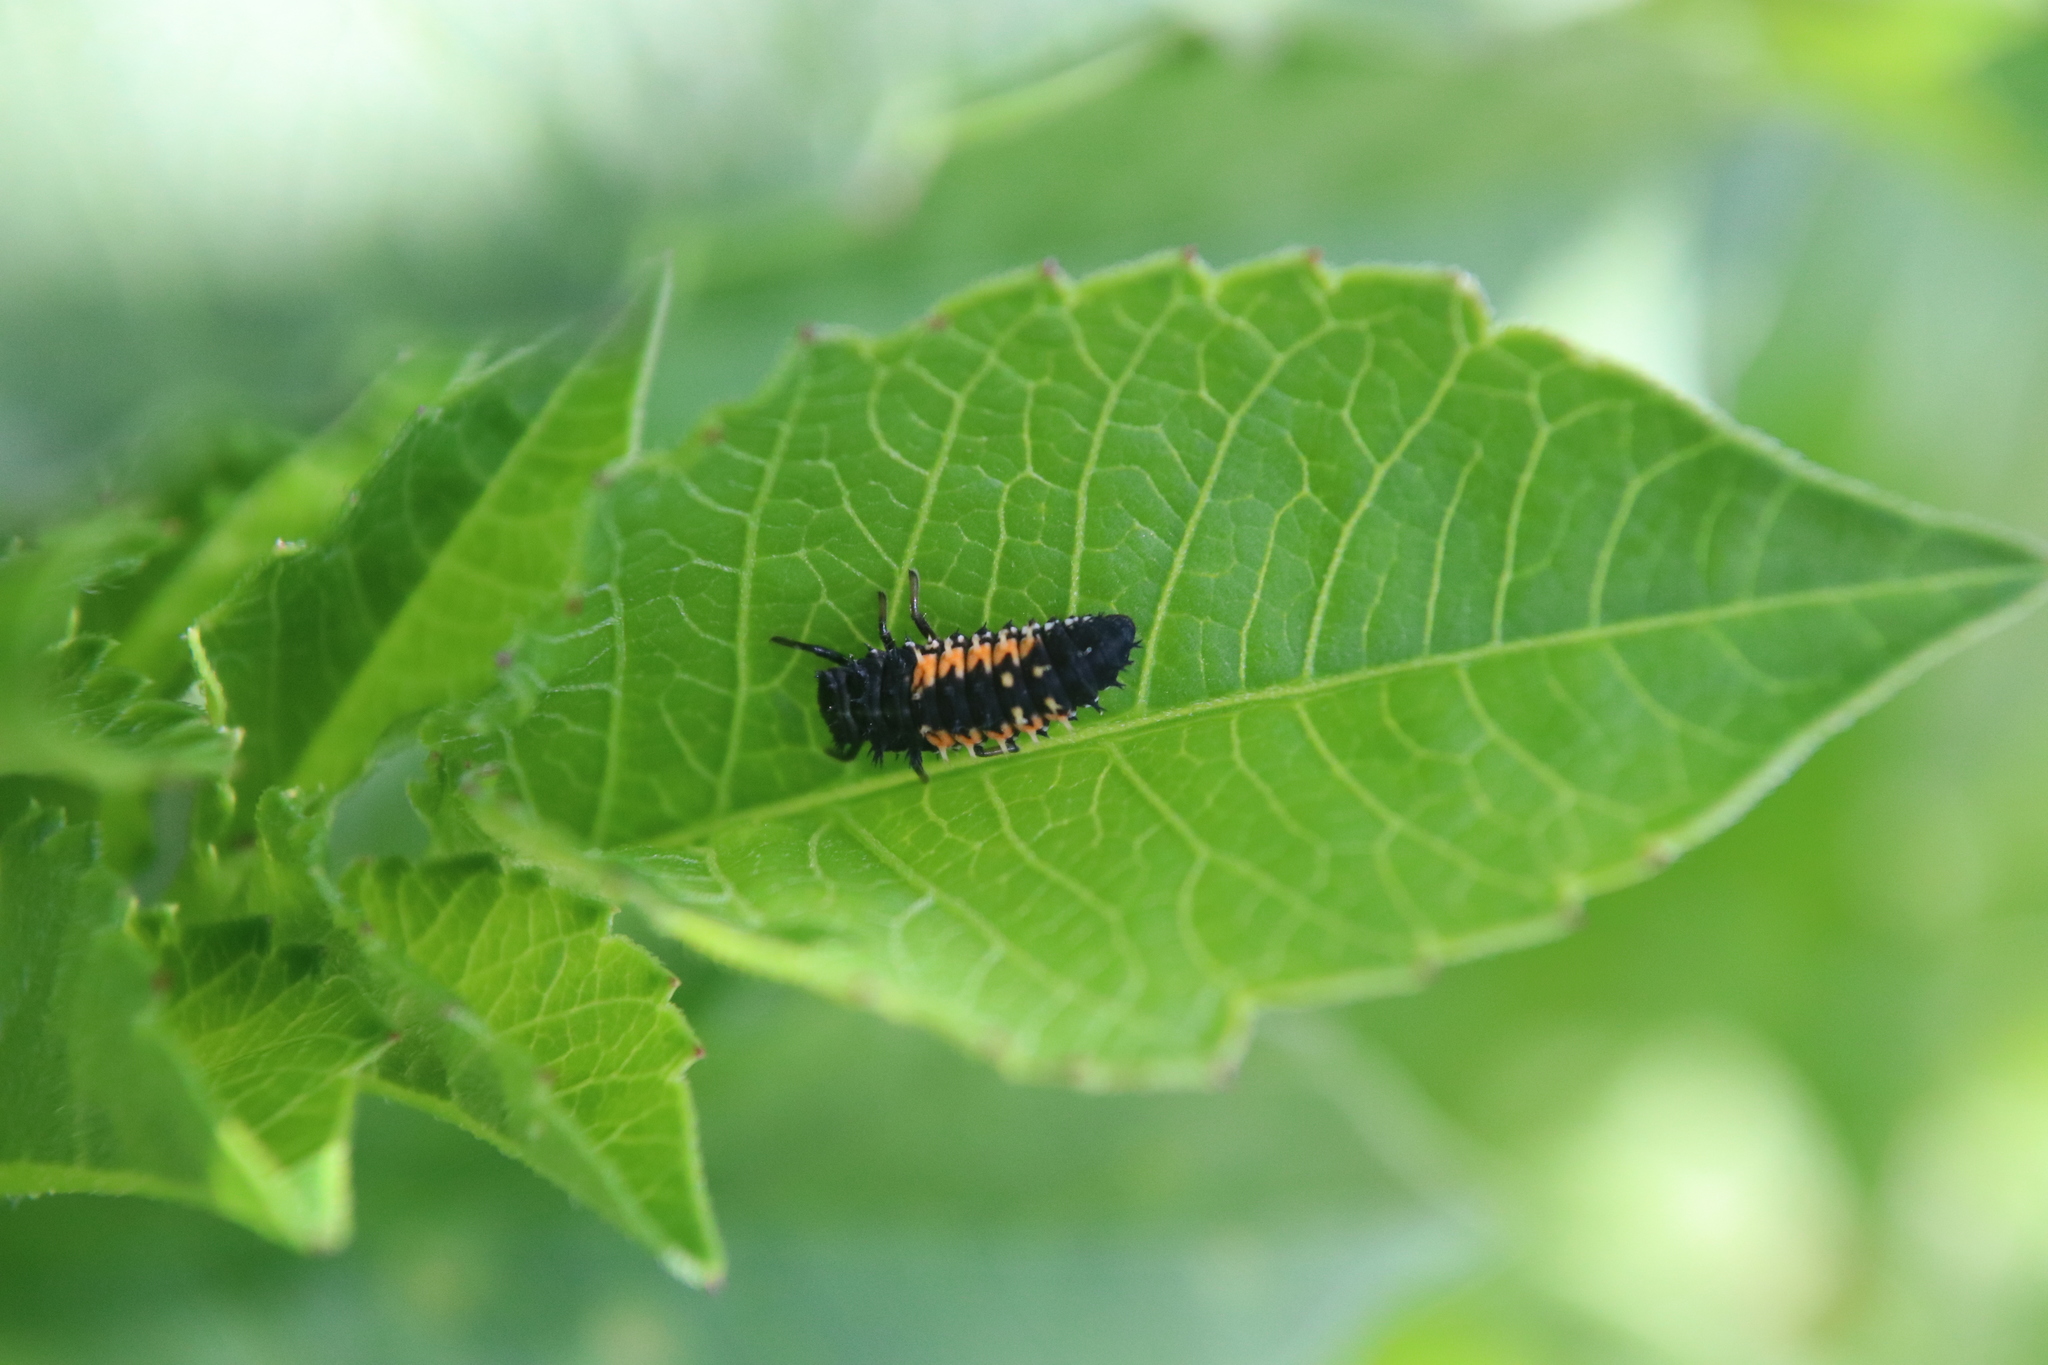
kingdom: Animalia
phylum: Arthropoda
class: Insecta
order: Coleoptera
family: Coccinellidae
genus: Harmonia
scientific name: Harmonia axyridis
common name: Harlequin ladybird
